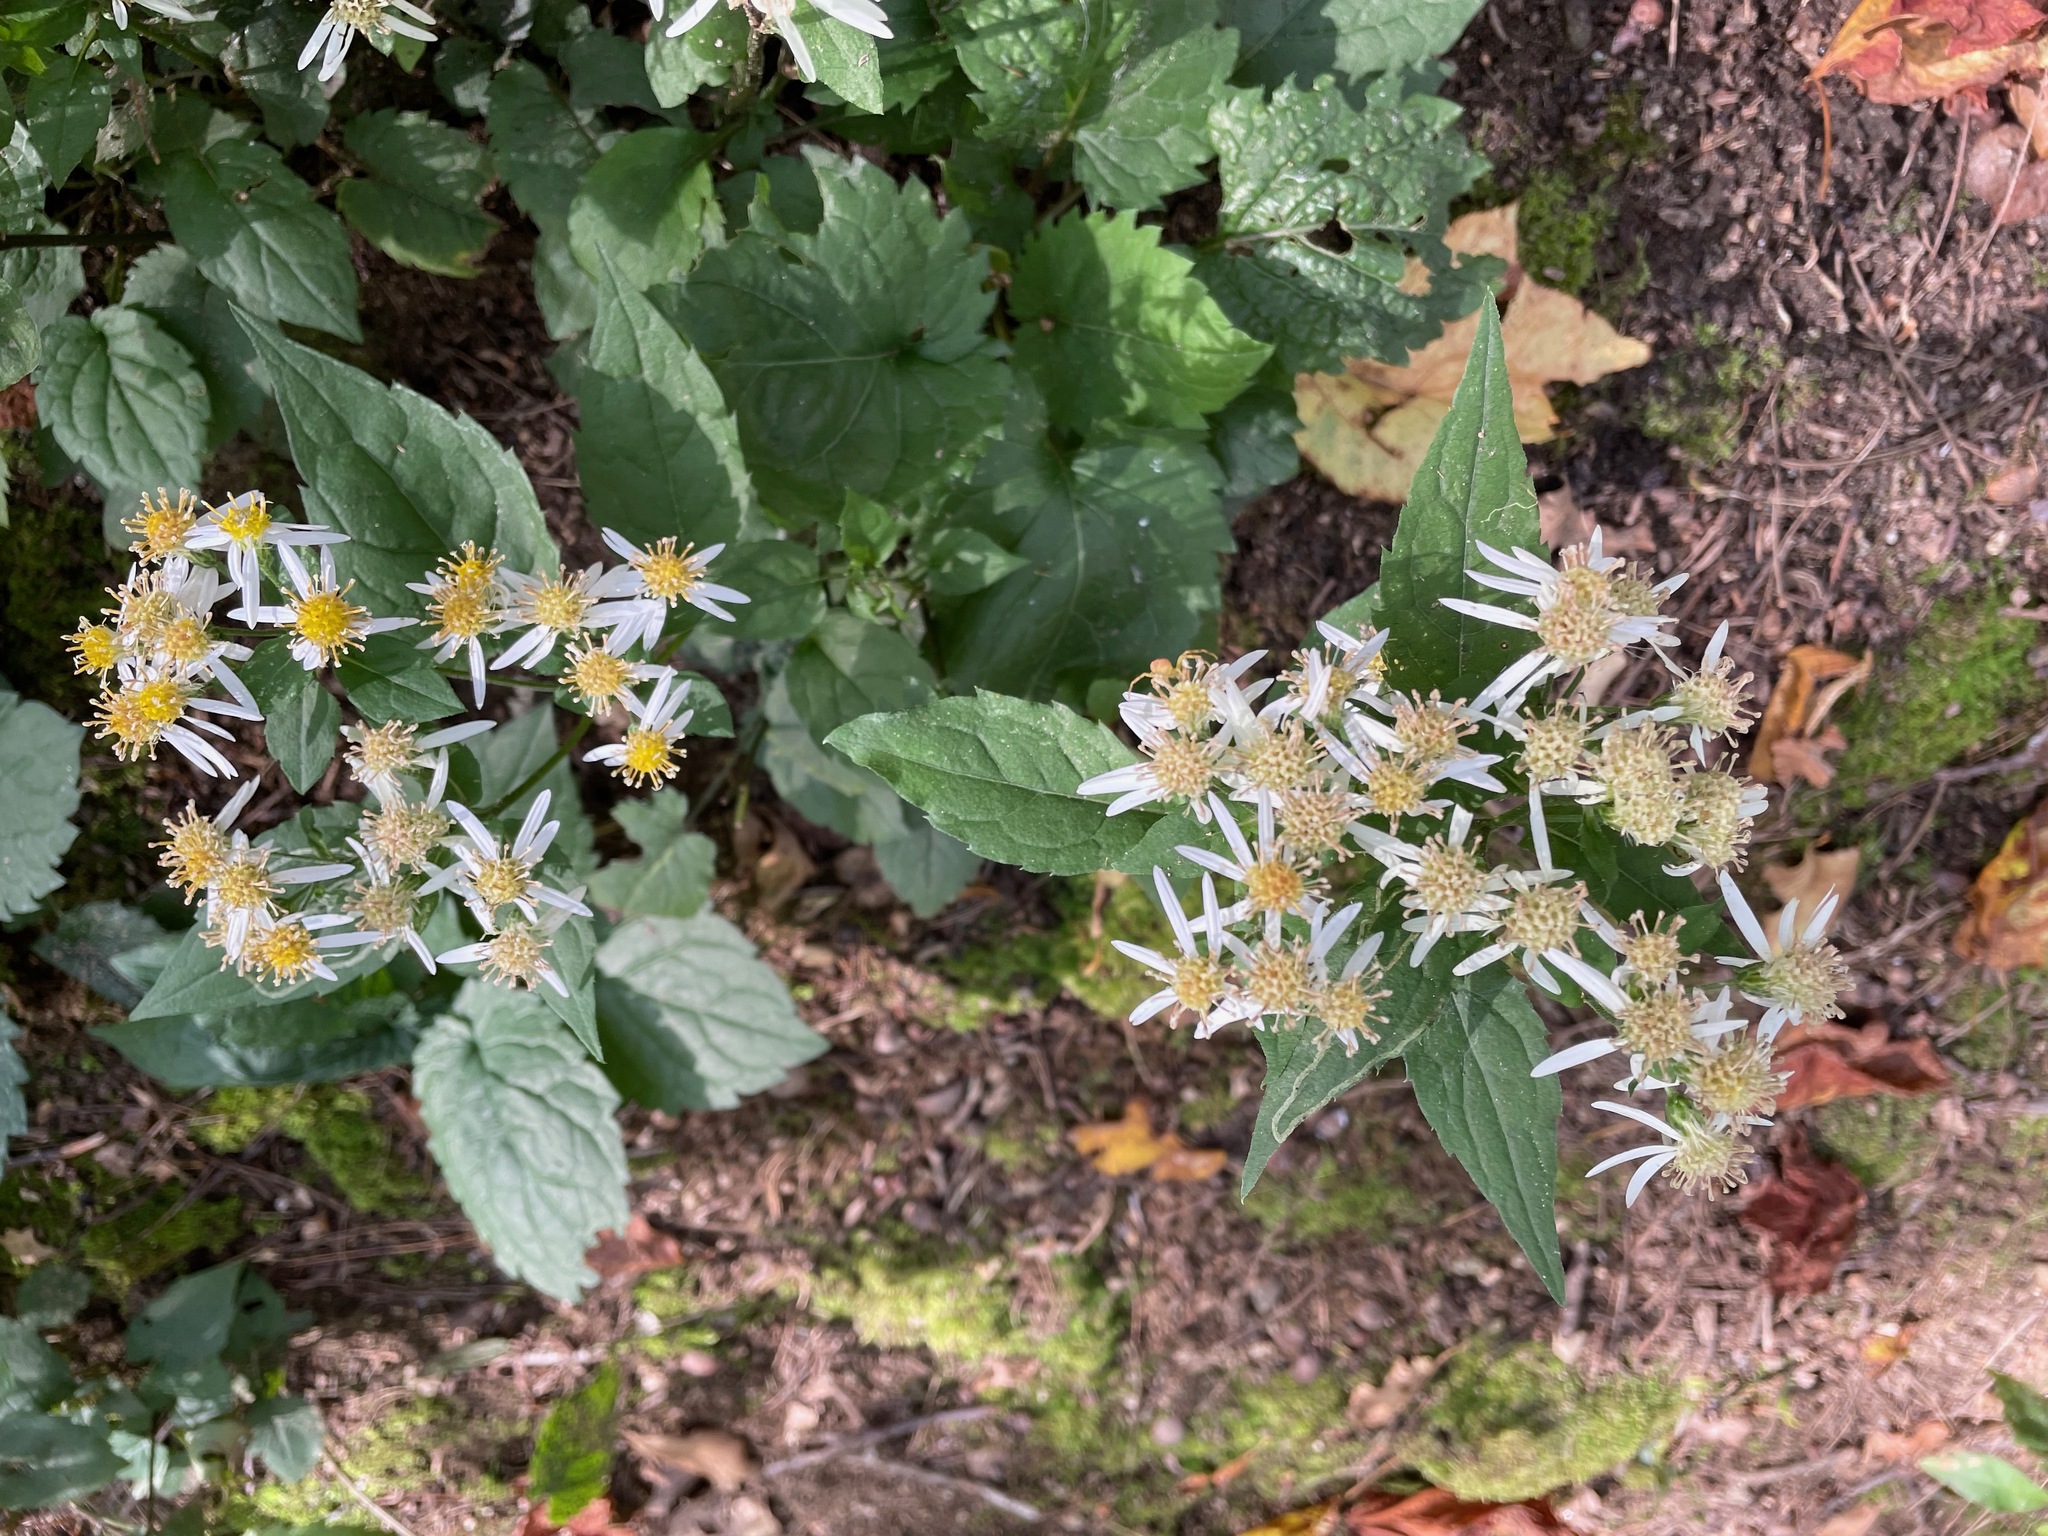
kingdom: Plantae
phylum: Tracheophyta
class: Magnoliopsida
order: Asterales
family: Asteraceae
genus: Eurybia
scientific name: Eurybia divaricata
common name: White wood aster
